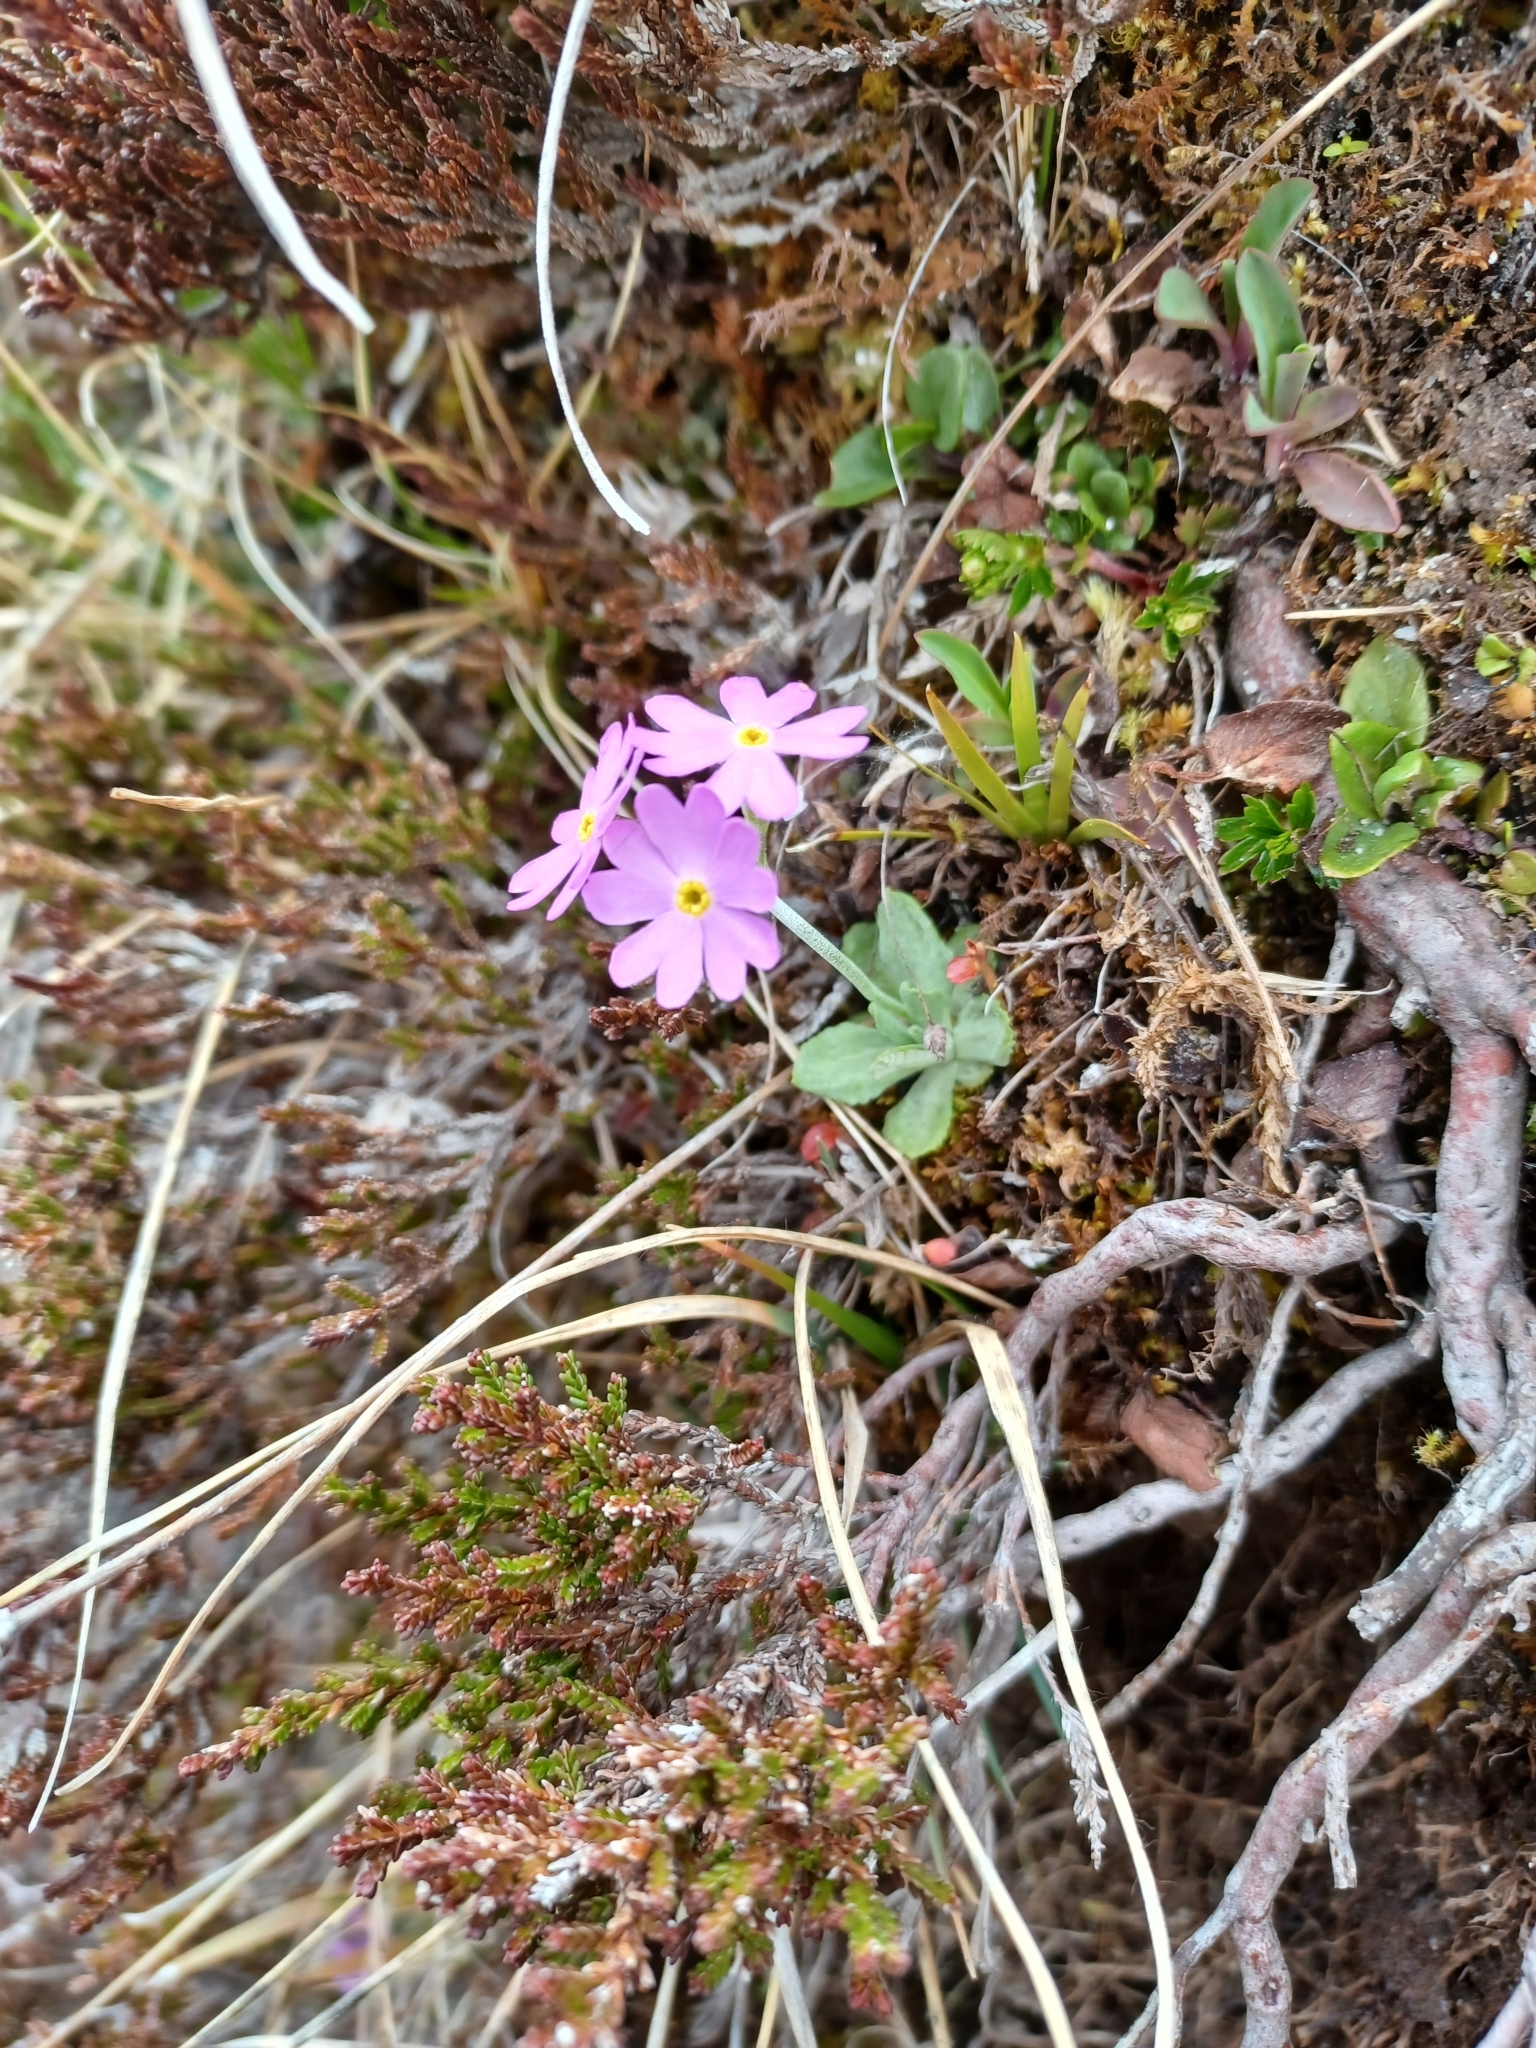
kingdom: Plantae
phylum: Tracheophyta
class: Magnoliopsida
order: Ericales
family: Primulaceae
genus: Primula
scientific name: Primula farinosa
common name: Bird's-eye primrose
